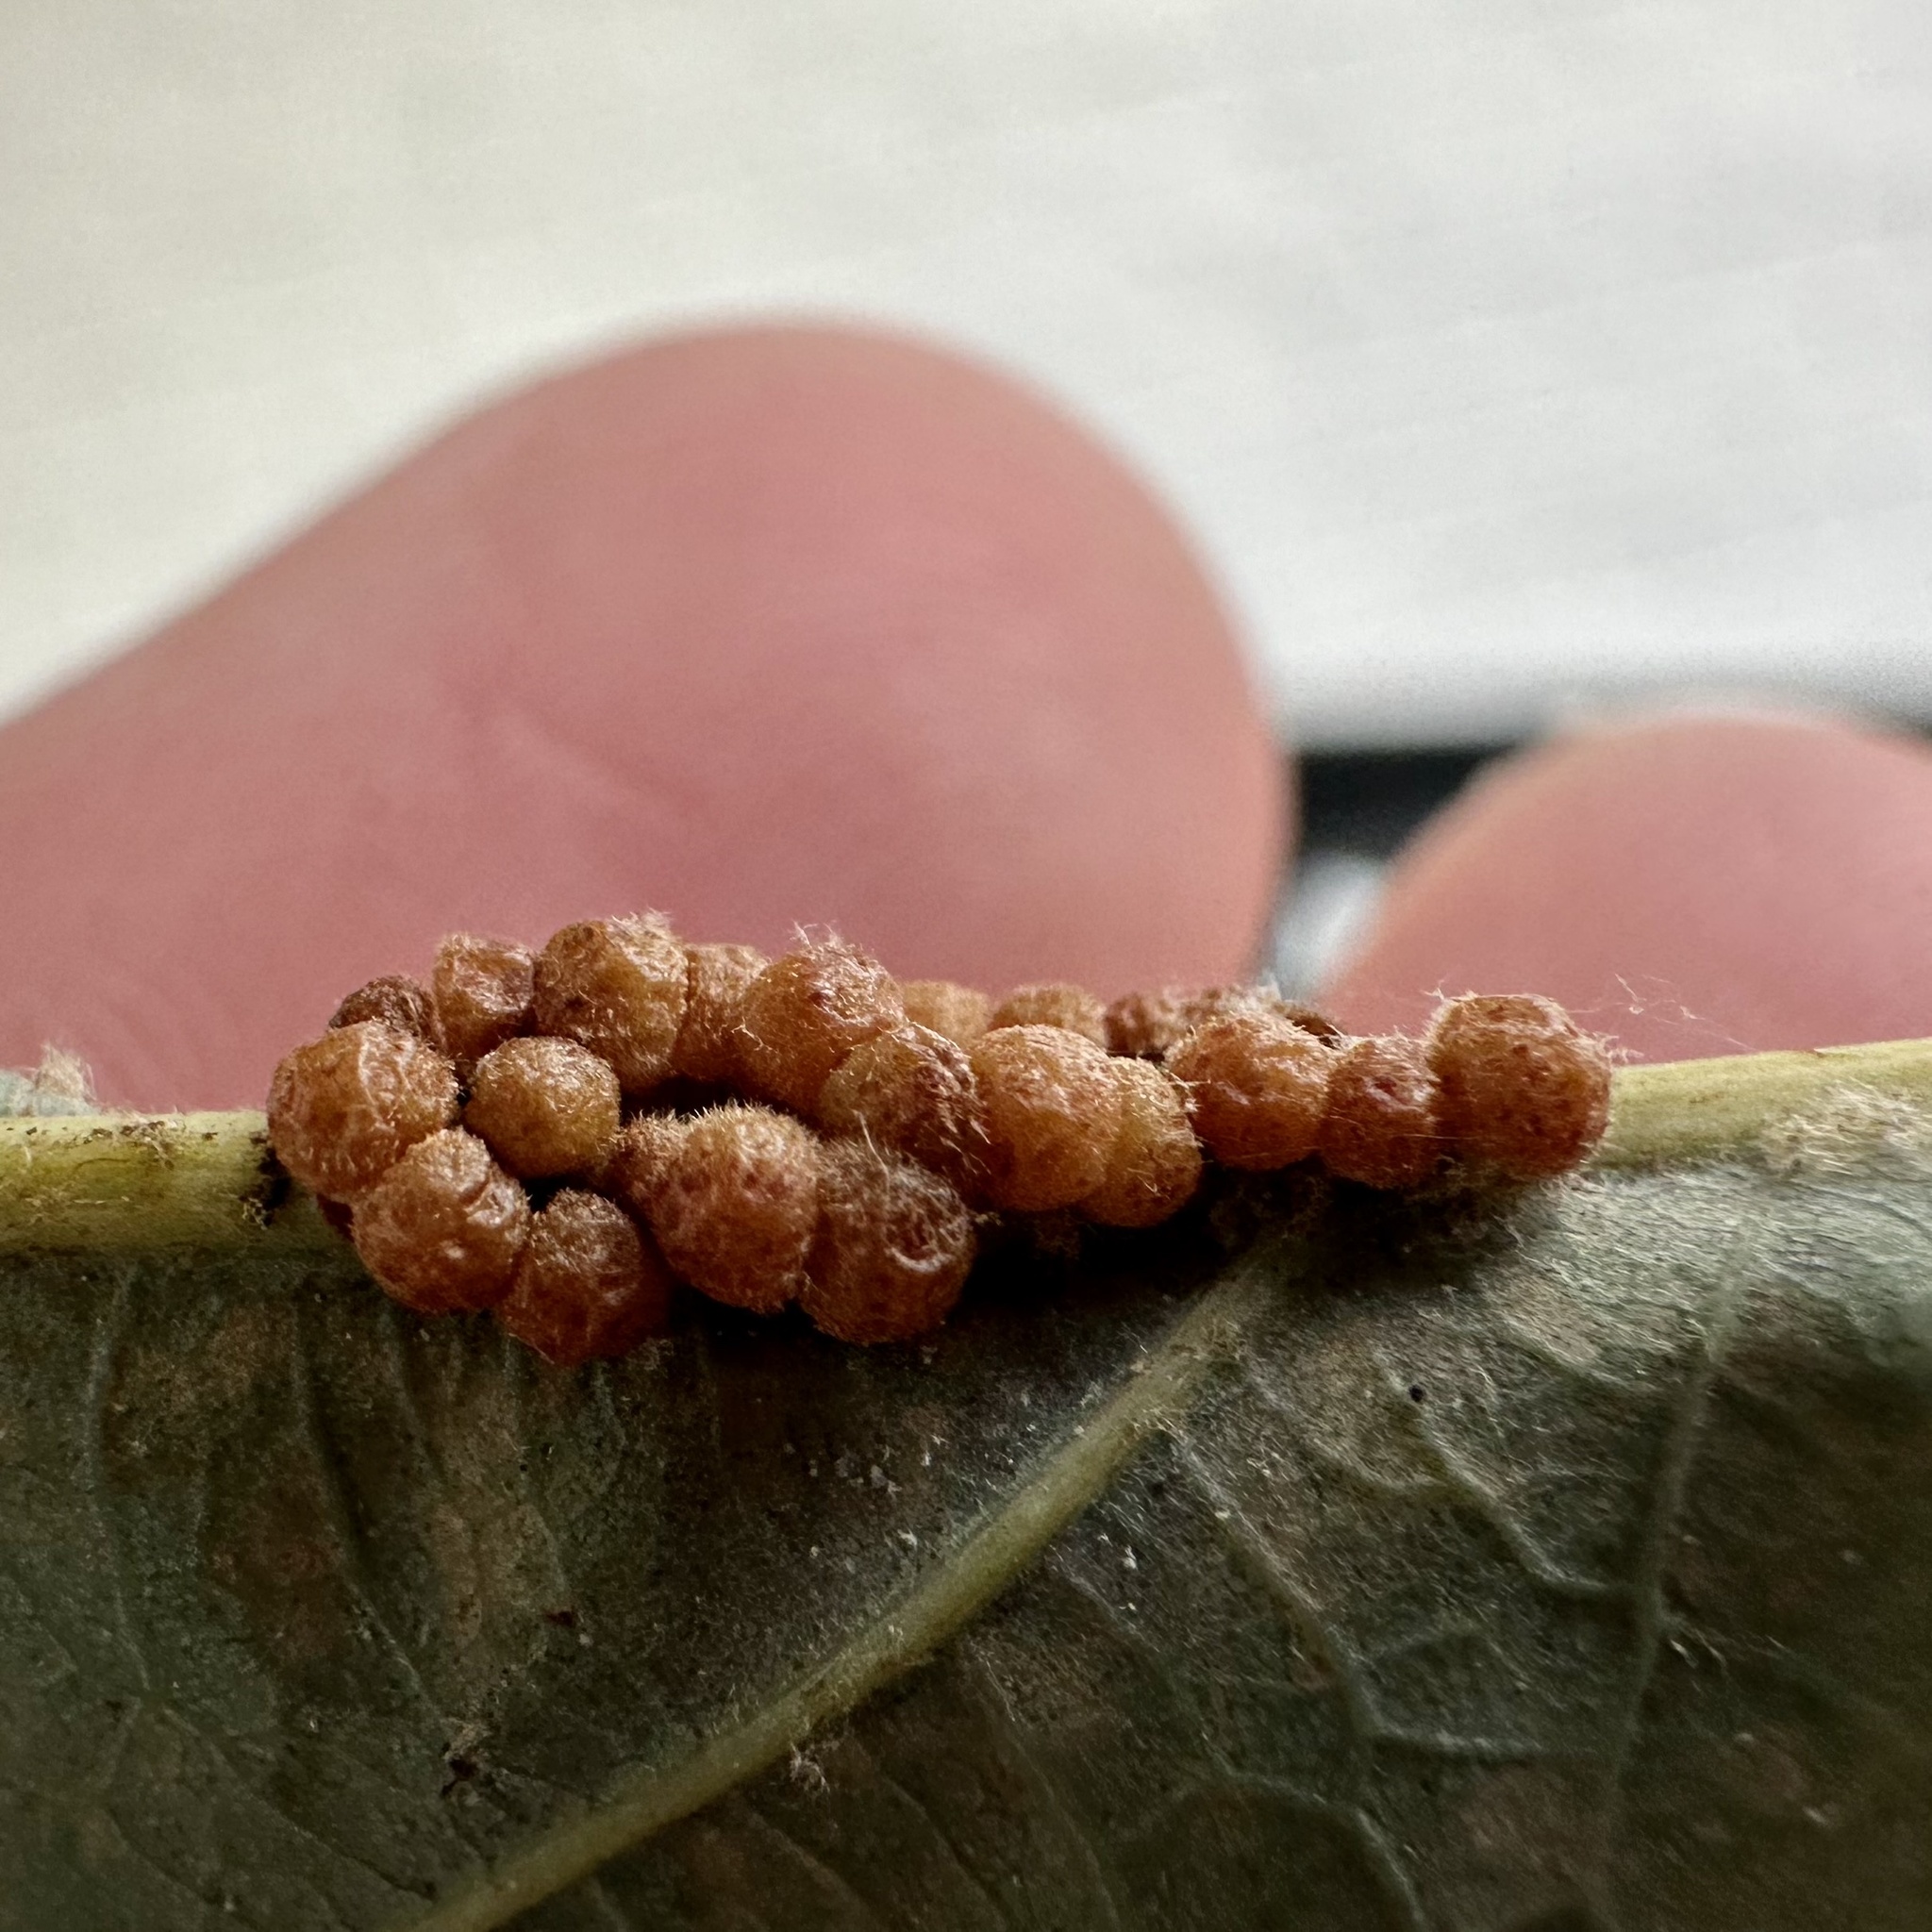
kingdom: Animalia
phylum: Arthropoda
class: Insecta
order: Hymenoptera
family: Cynipidae
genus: Andricus
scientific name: Andricus
